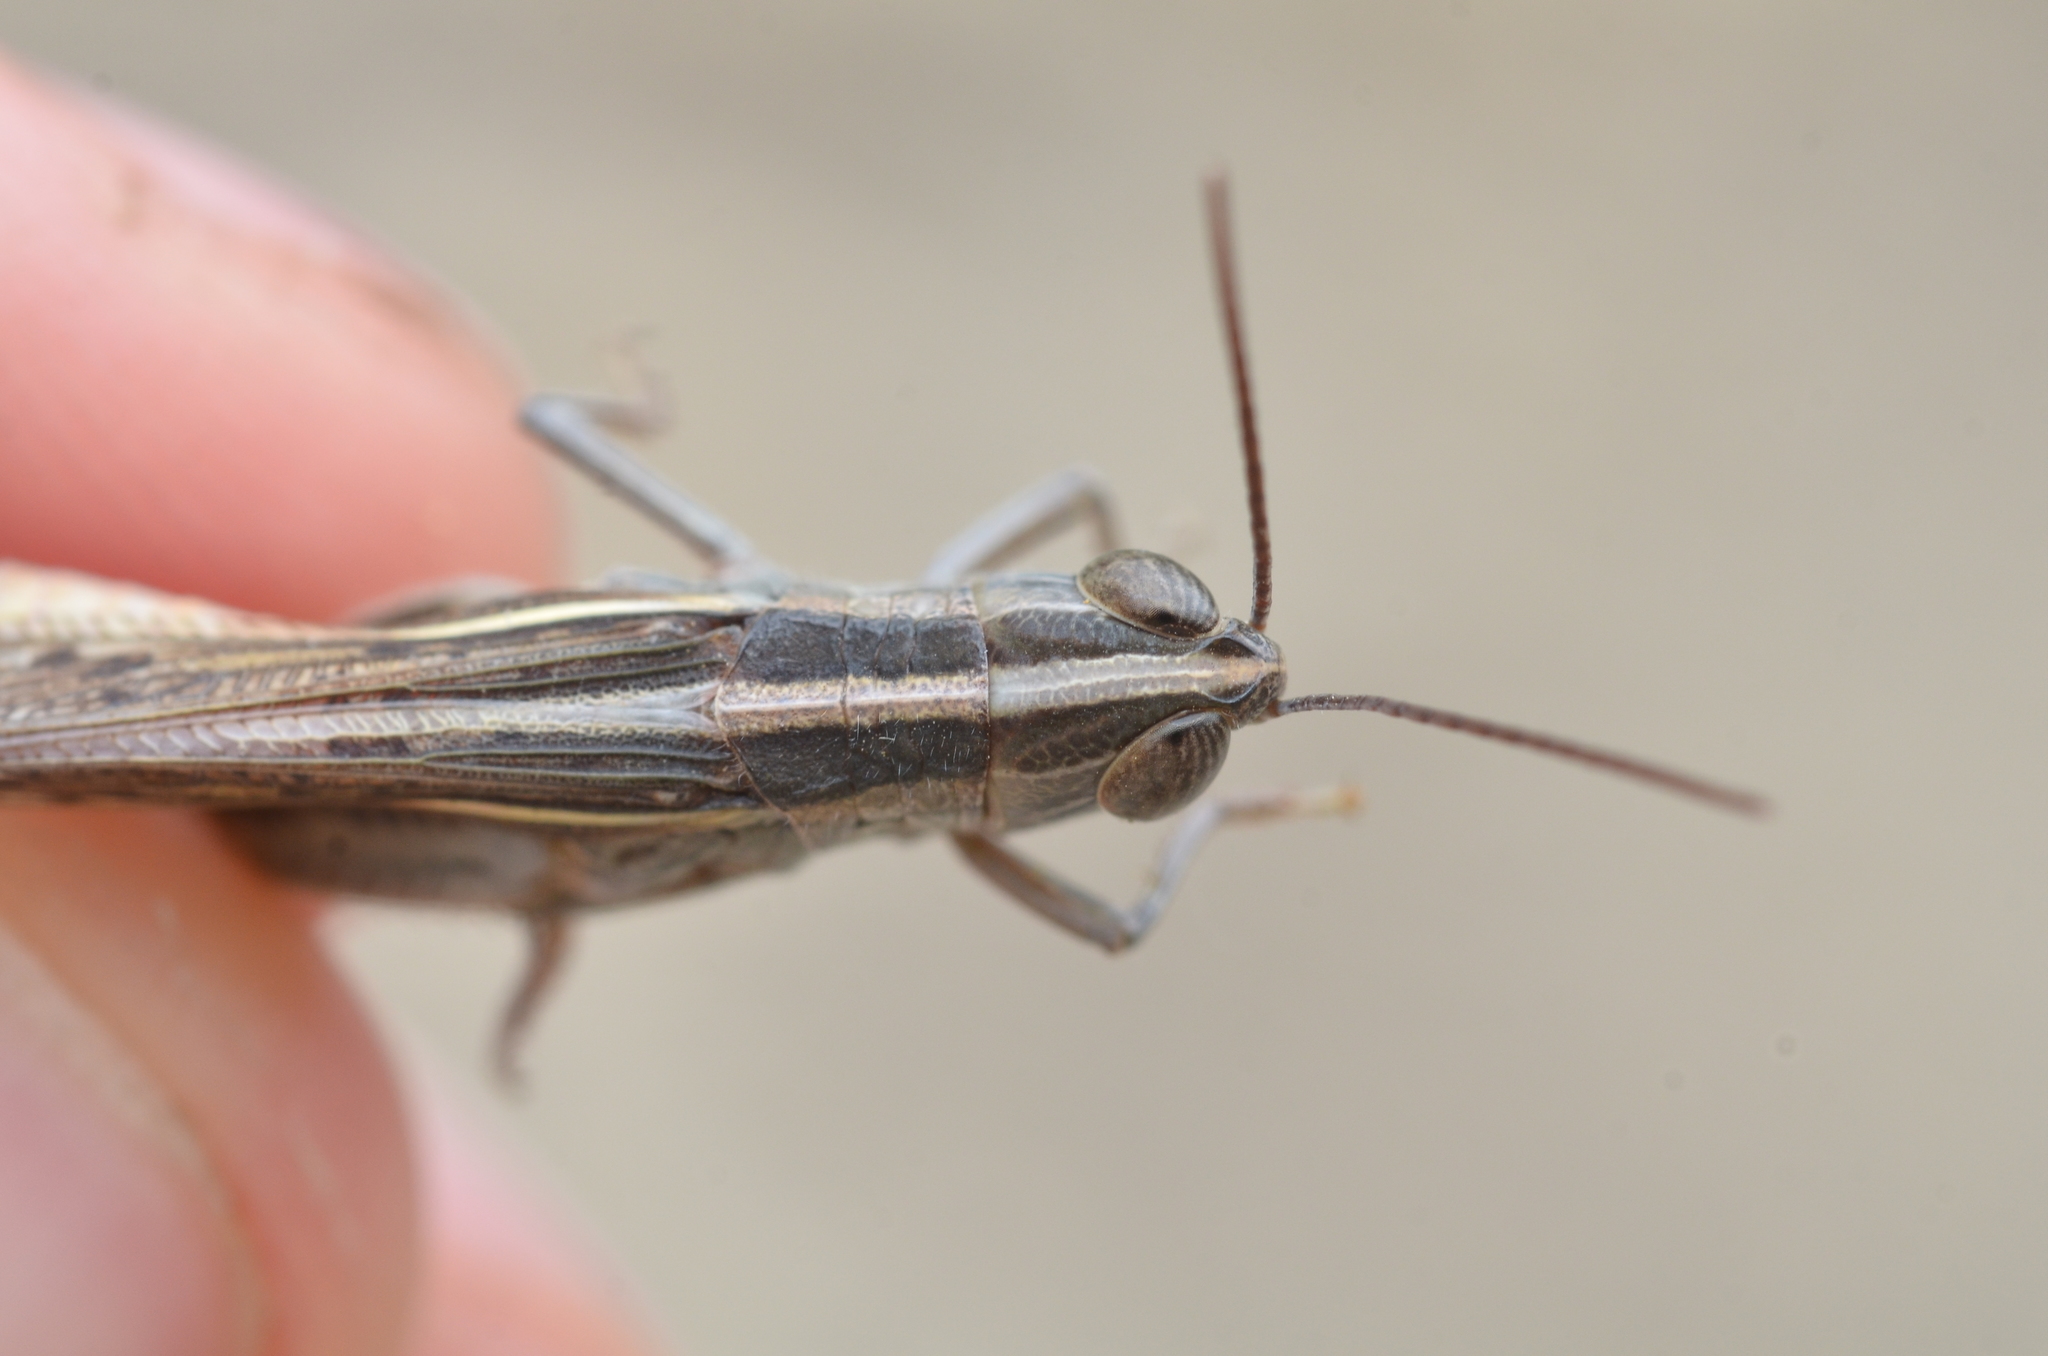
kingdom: Animalia
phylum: Arthropoda
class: Insecta
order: Orthoptera
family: Acrididae
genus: Ramburiella
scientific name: Ramburiella hispanica
